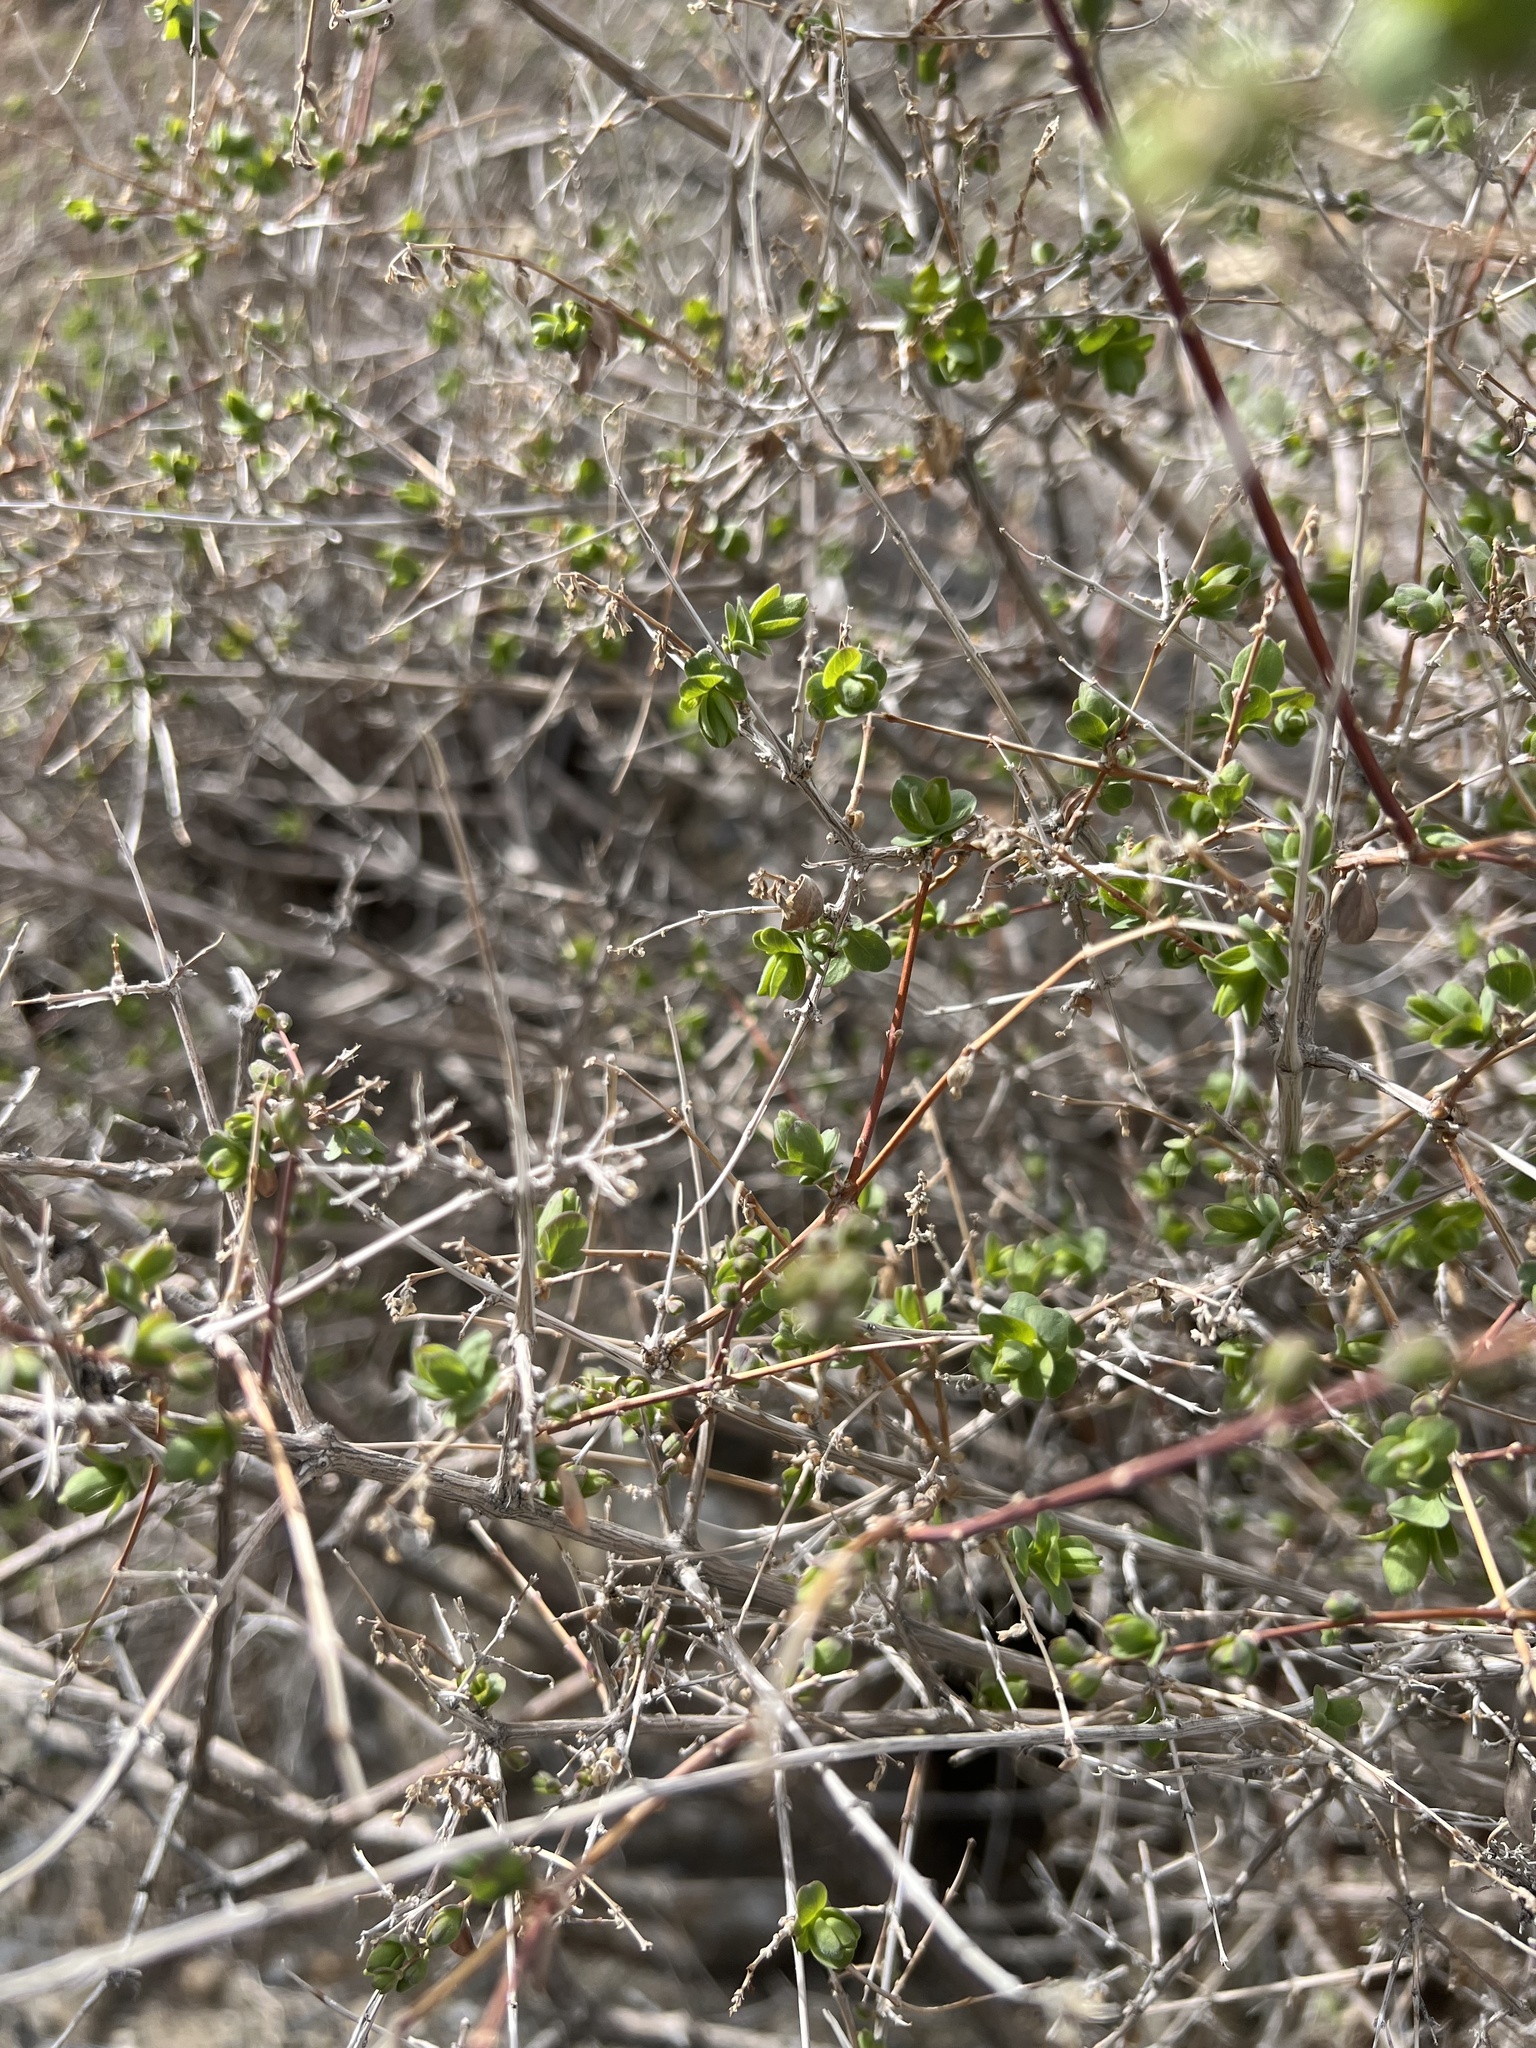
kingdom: Plantae
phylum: Tracheophyta
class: Magnoliopsida
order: Dipsacales
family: Caprifoliaceae
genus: Symphoricarpos
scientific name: Symphoricarpos longiflorus
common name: Fragrant snowberry
